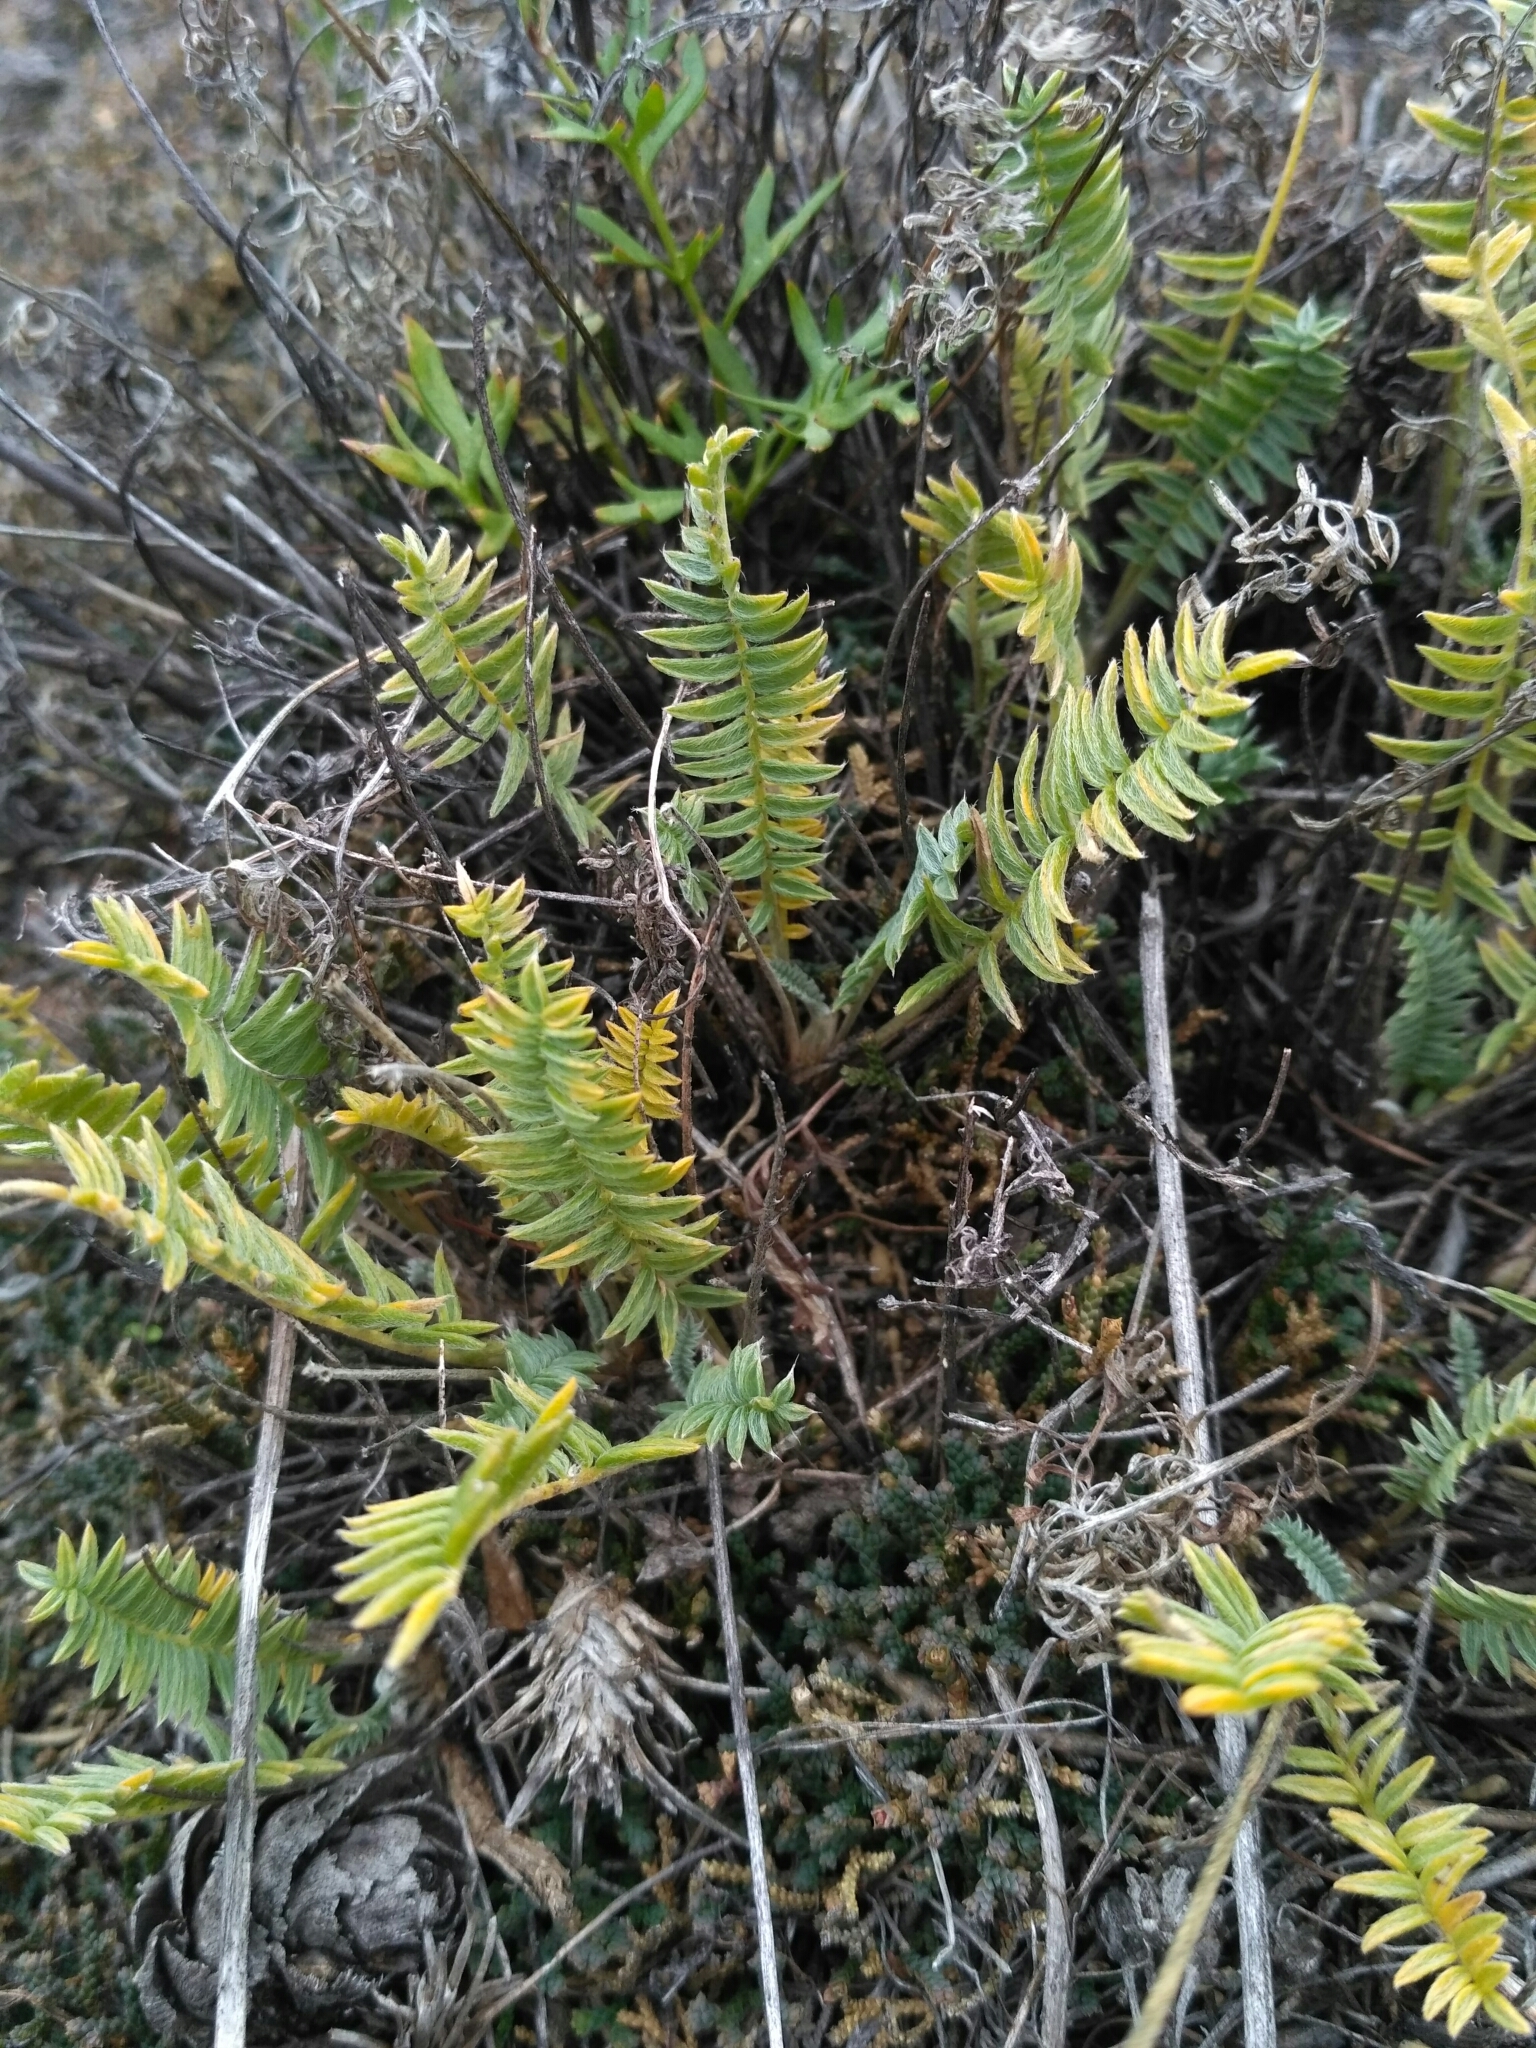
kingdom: Plantae
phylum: Tracheophyta
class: Magnoliopsida
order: Fabales
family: Fabaceae
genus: Oxytropis
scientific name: Oxytropis coerulea
